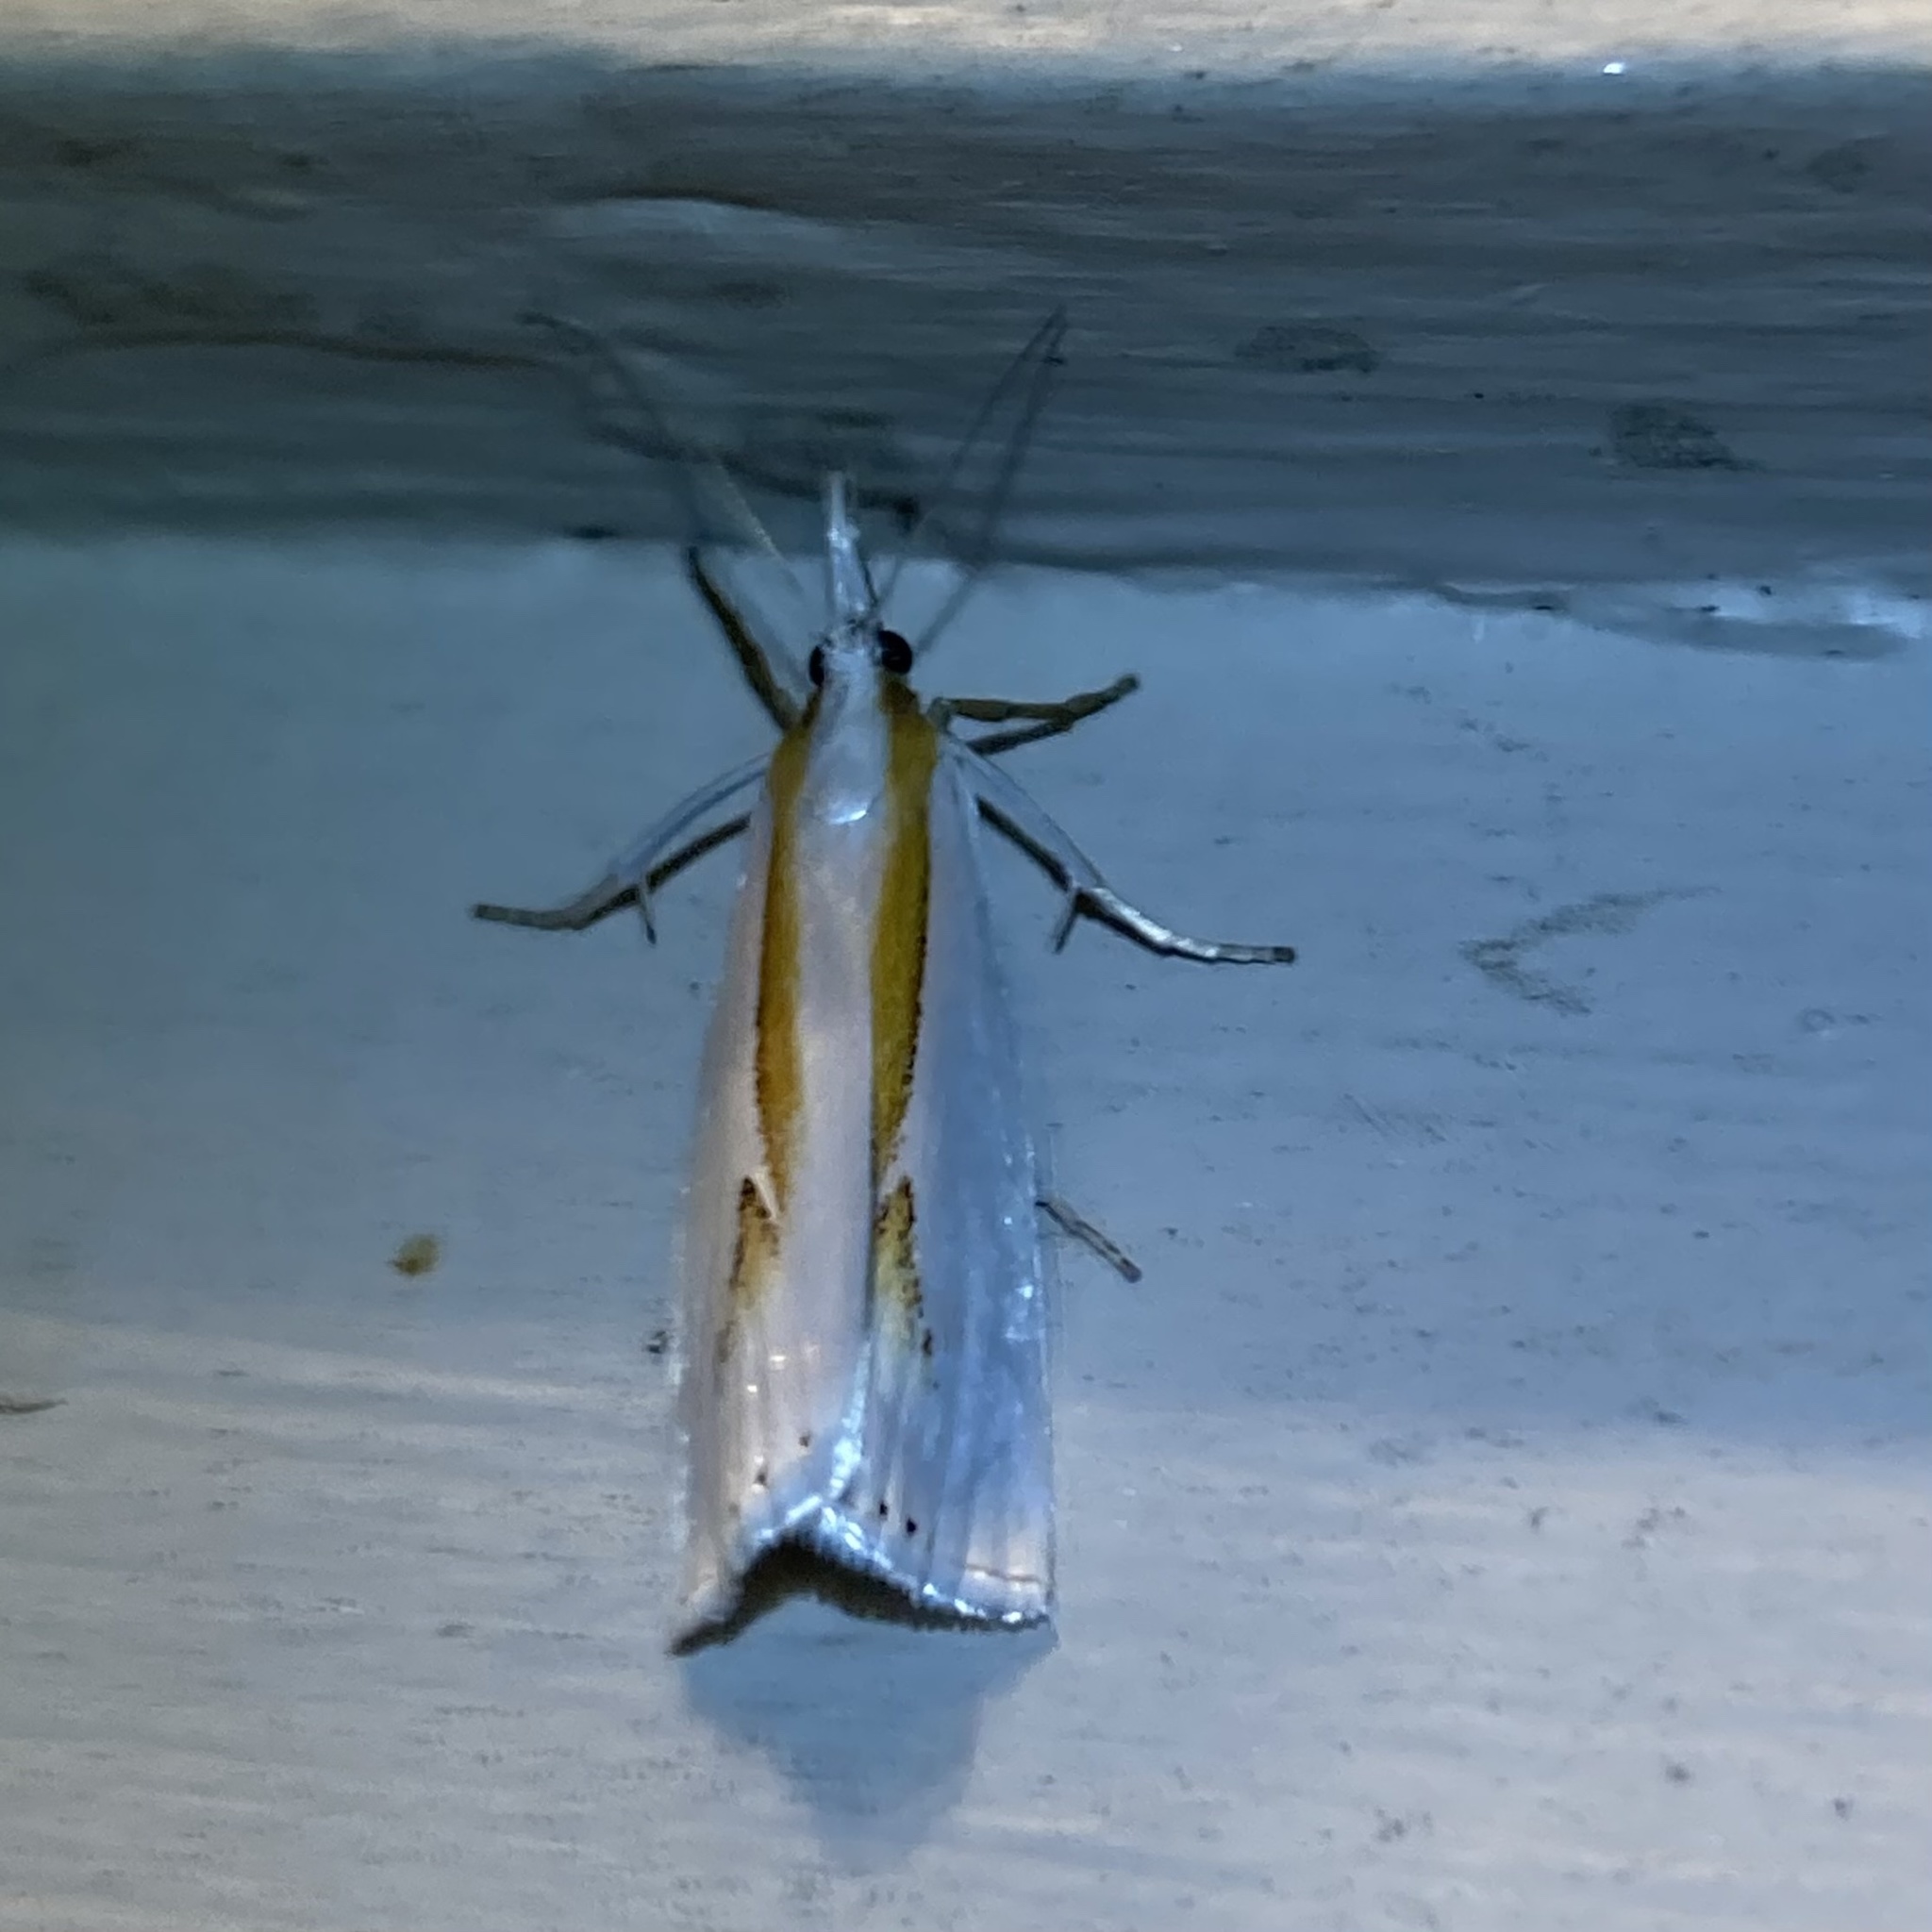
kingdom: Animalia
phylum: Arthropoda
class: Insecta
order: Lepidoptera
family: Crambidae
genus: Crambus
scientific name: Crambus girardellus
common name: Girard's grass-veneer
